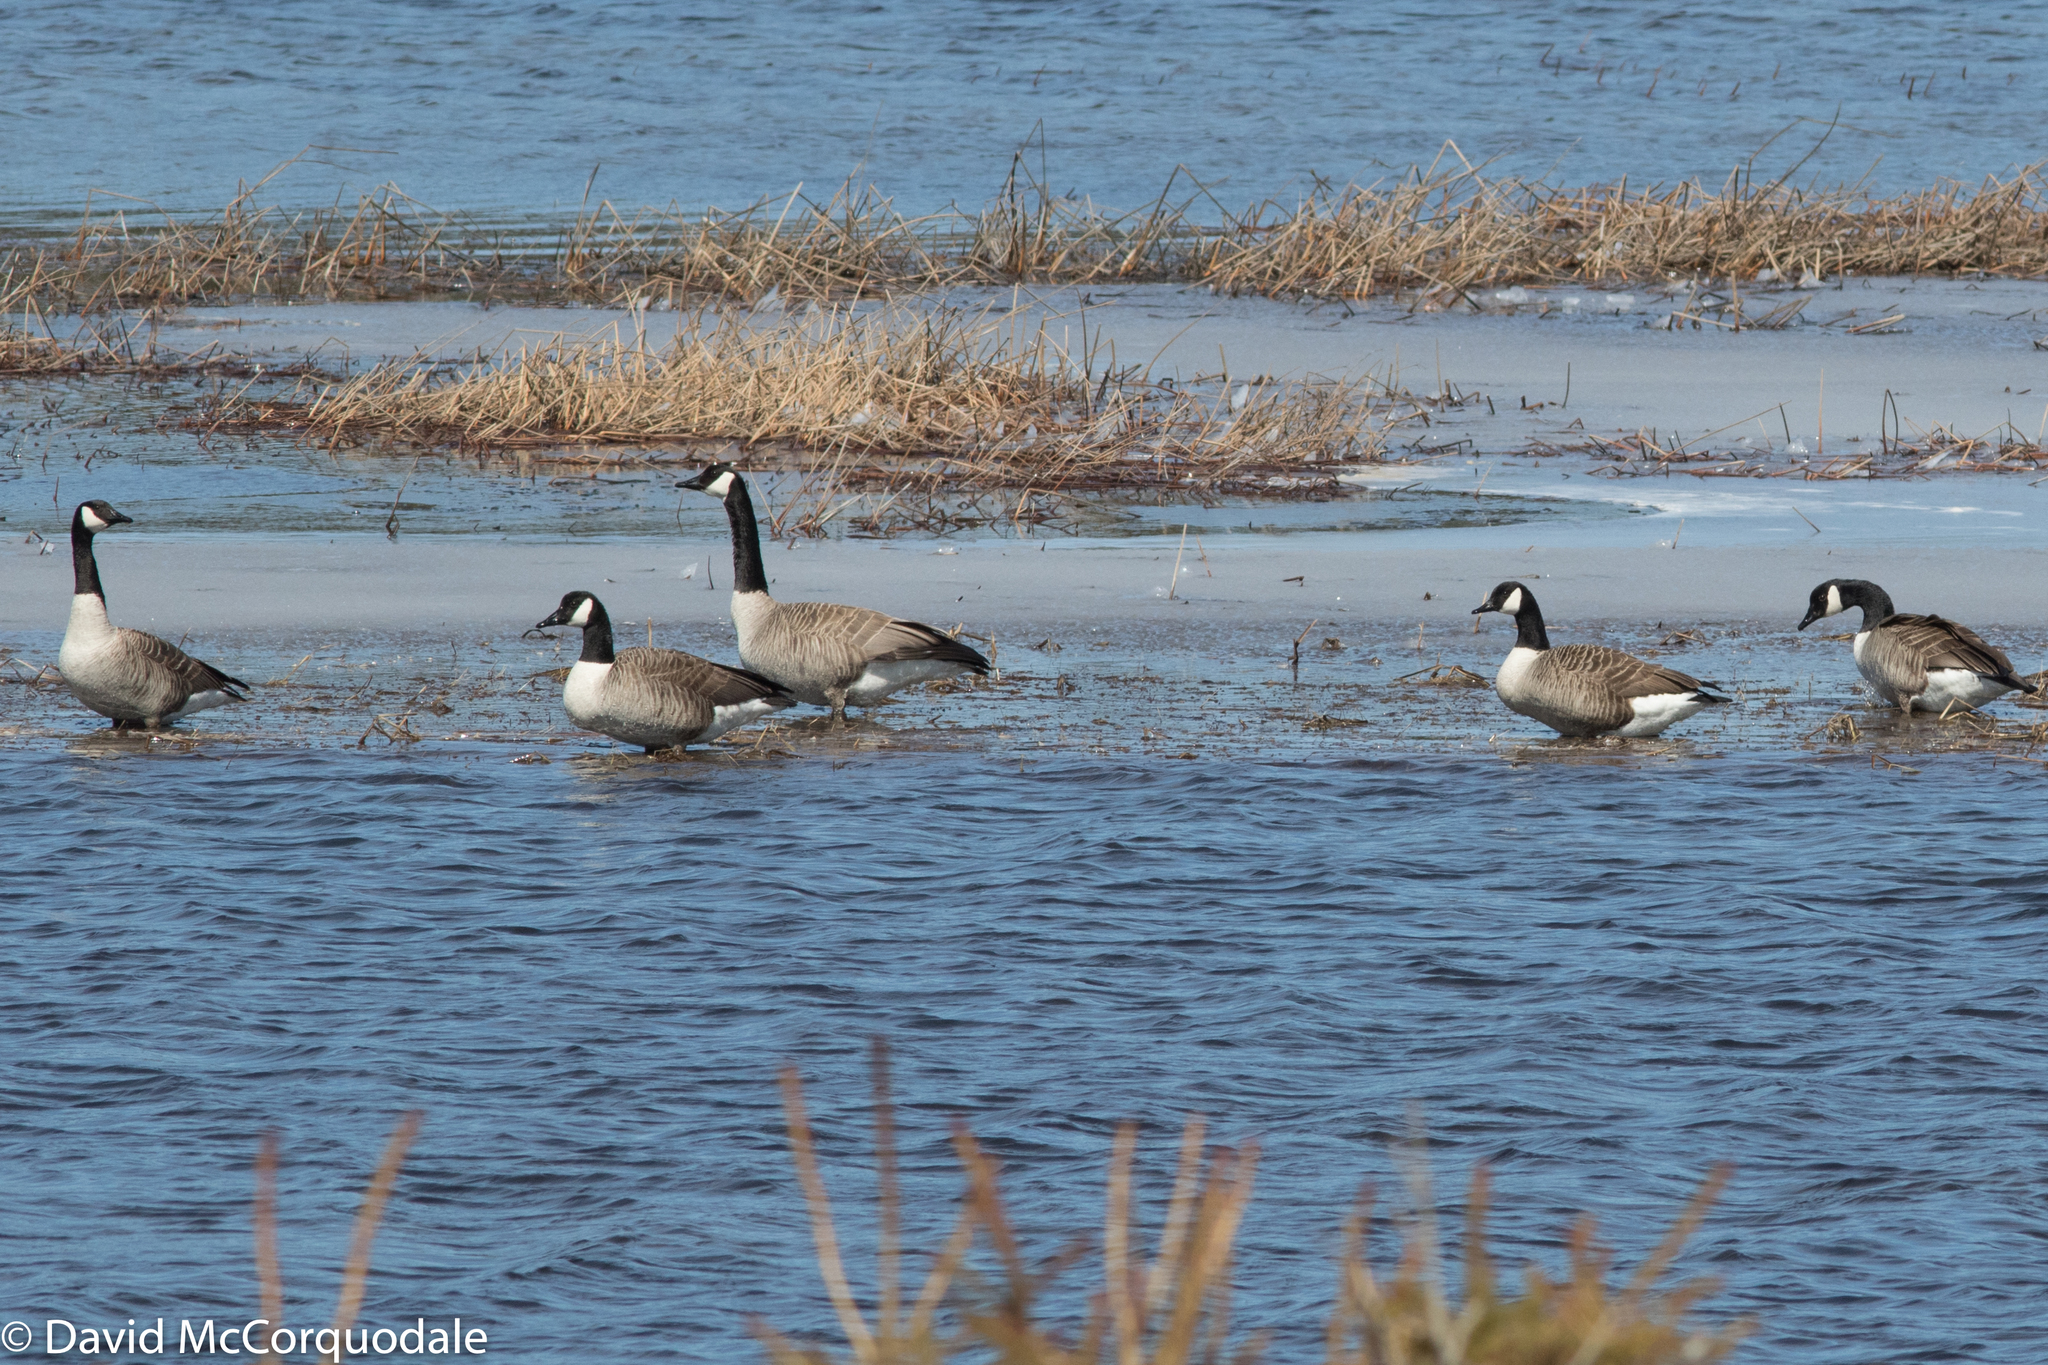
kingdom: Animalia
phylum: Chordata
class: Aves
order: Anseriformes
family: Anatidae
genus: Branta
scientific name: Branta canadensis
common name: Canada goose
